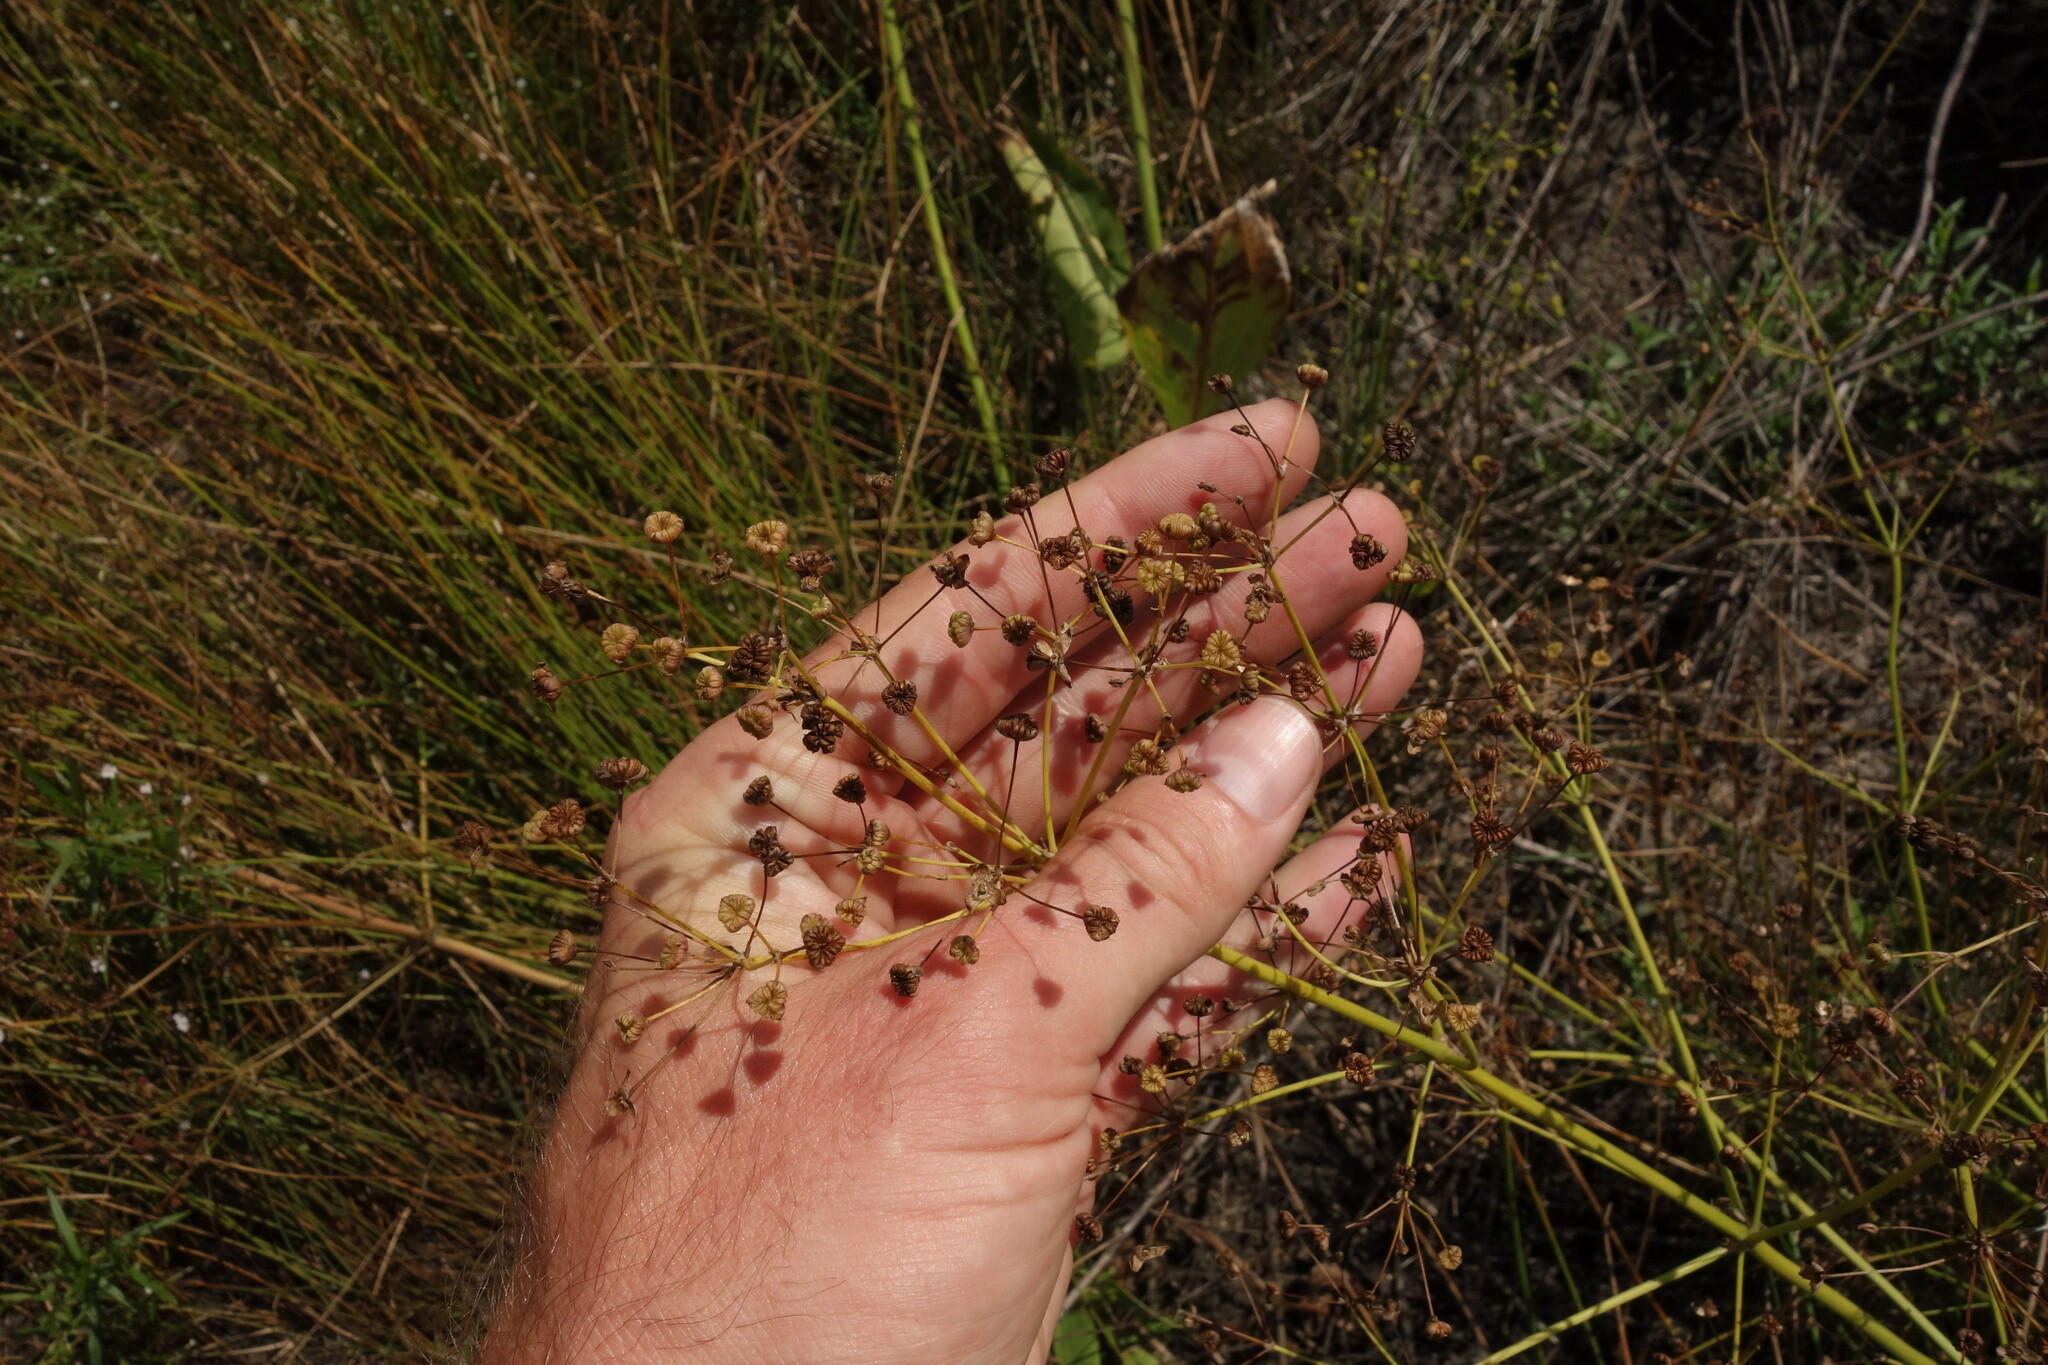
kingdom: Plantae
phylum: Tracheophyta
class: Liliopsida
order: Alismatales
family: Alismataceae
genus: Alisma
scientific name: Alisma plantago-aquatica
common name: Water-plantain
